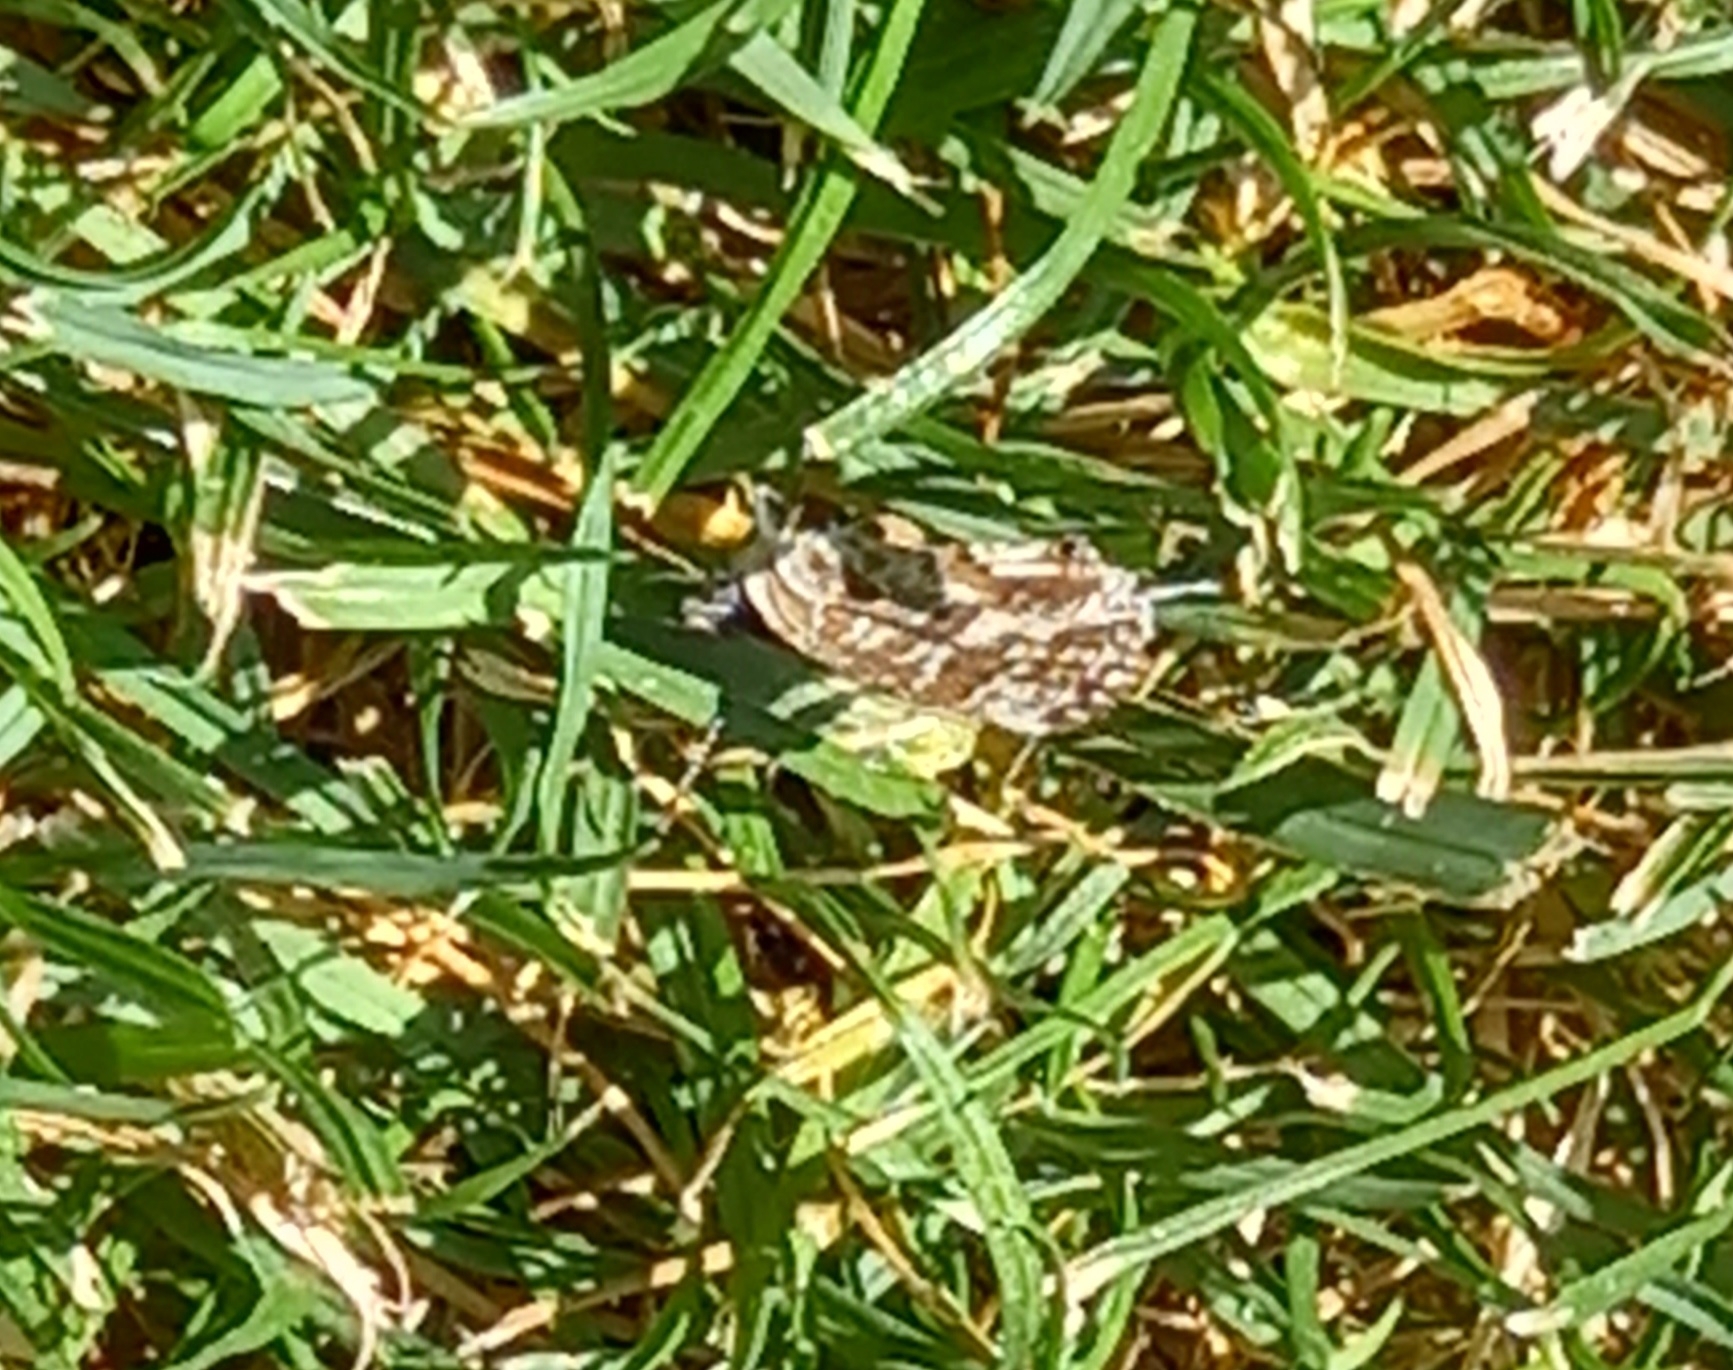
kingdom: Animalia
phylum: Arthropoda
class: Insecta
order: Lepidoptera
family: Lycaenidae
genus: Cacyreus
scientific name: Cacyreus marshalli
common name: Geranium bronze
